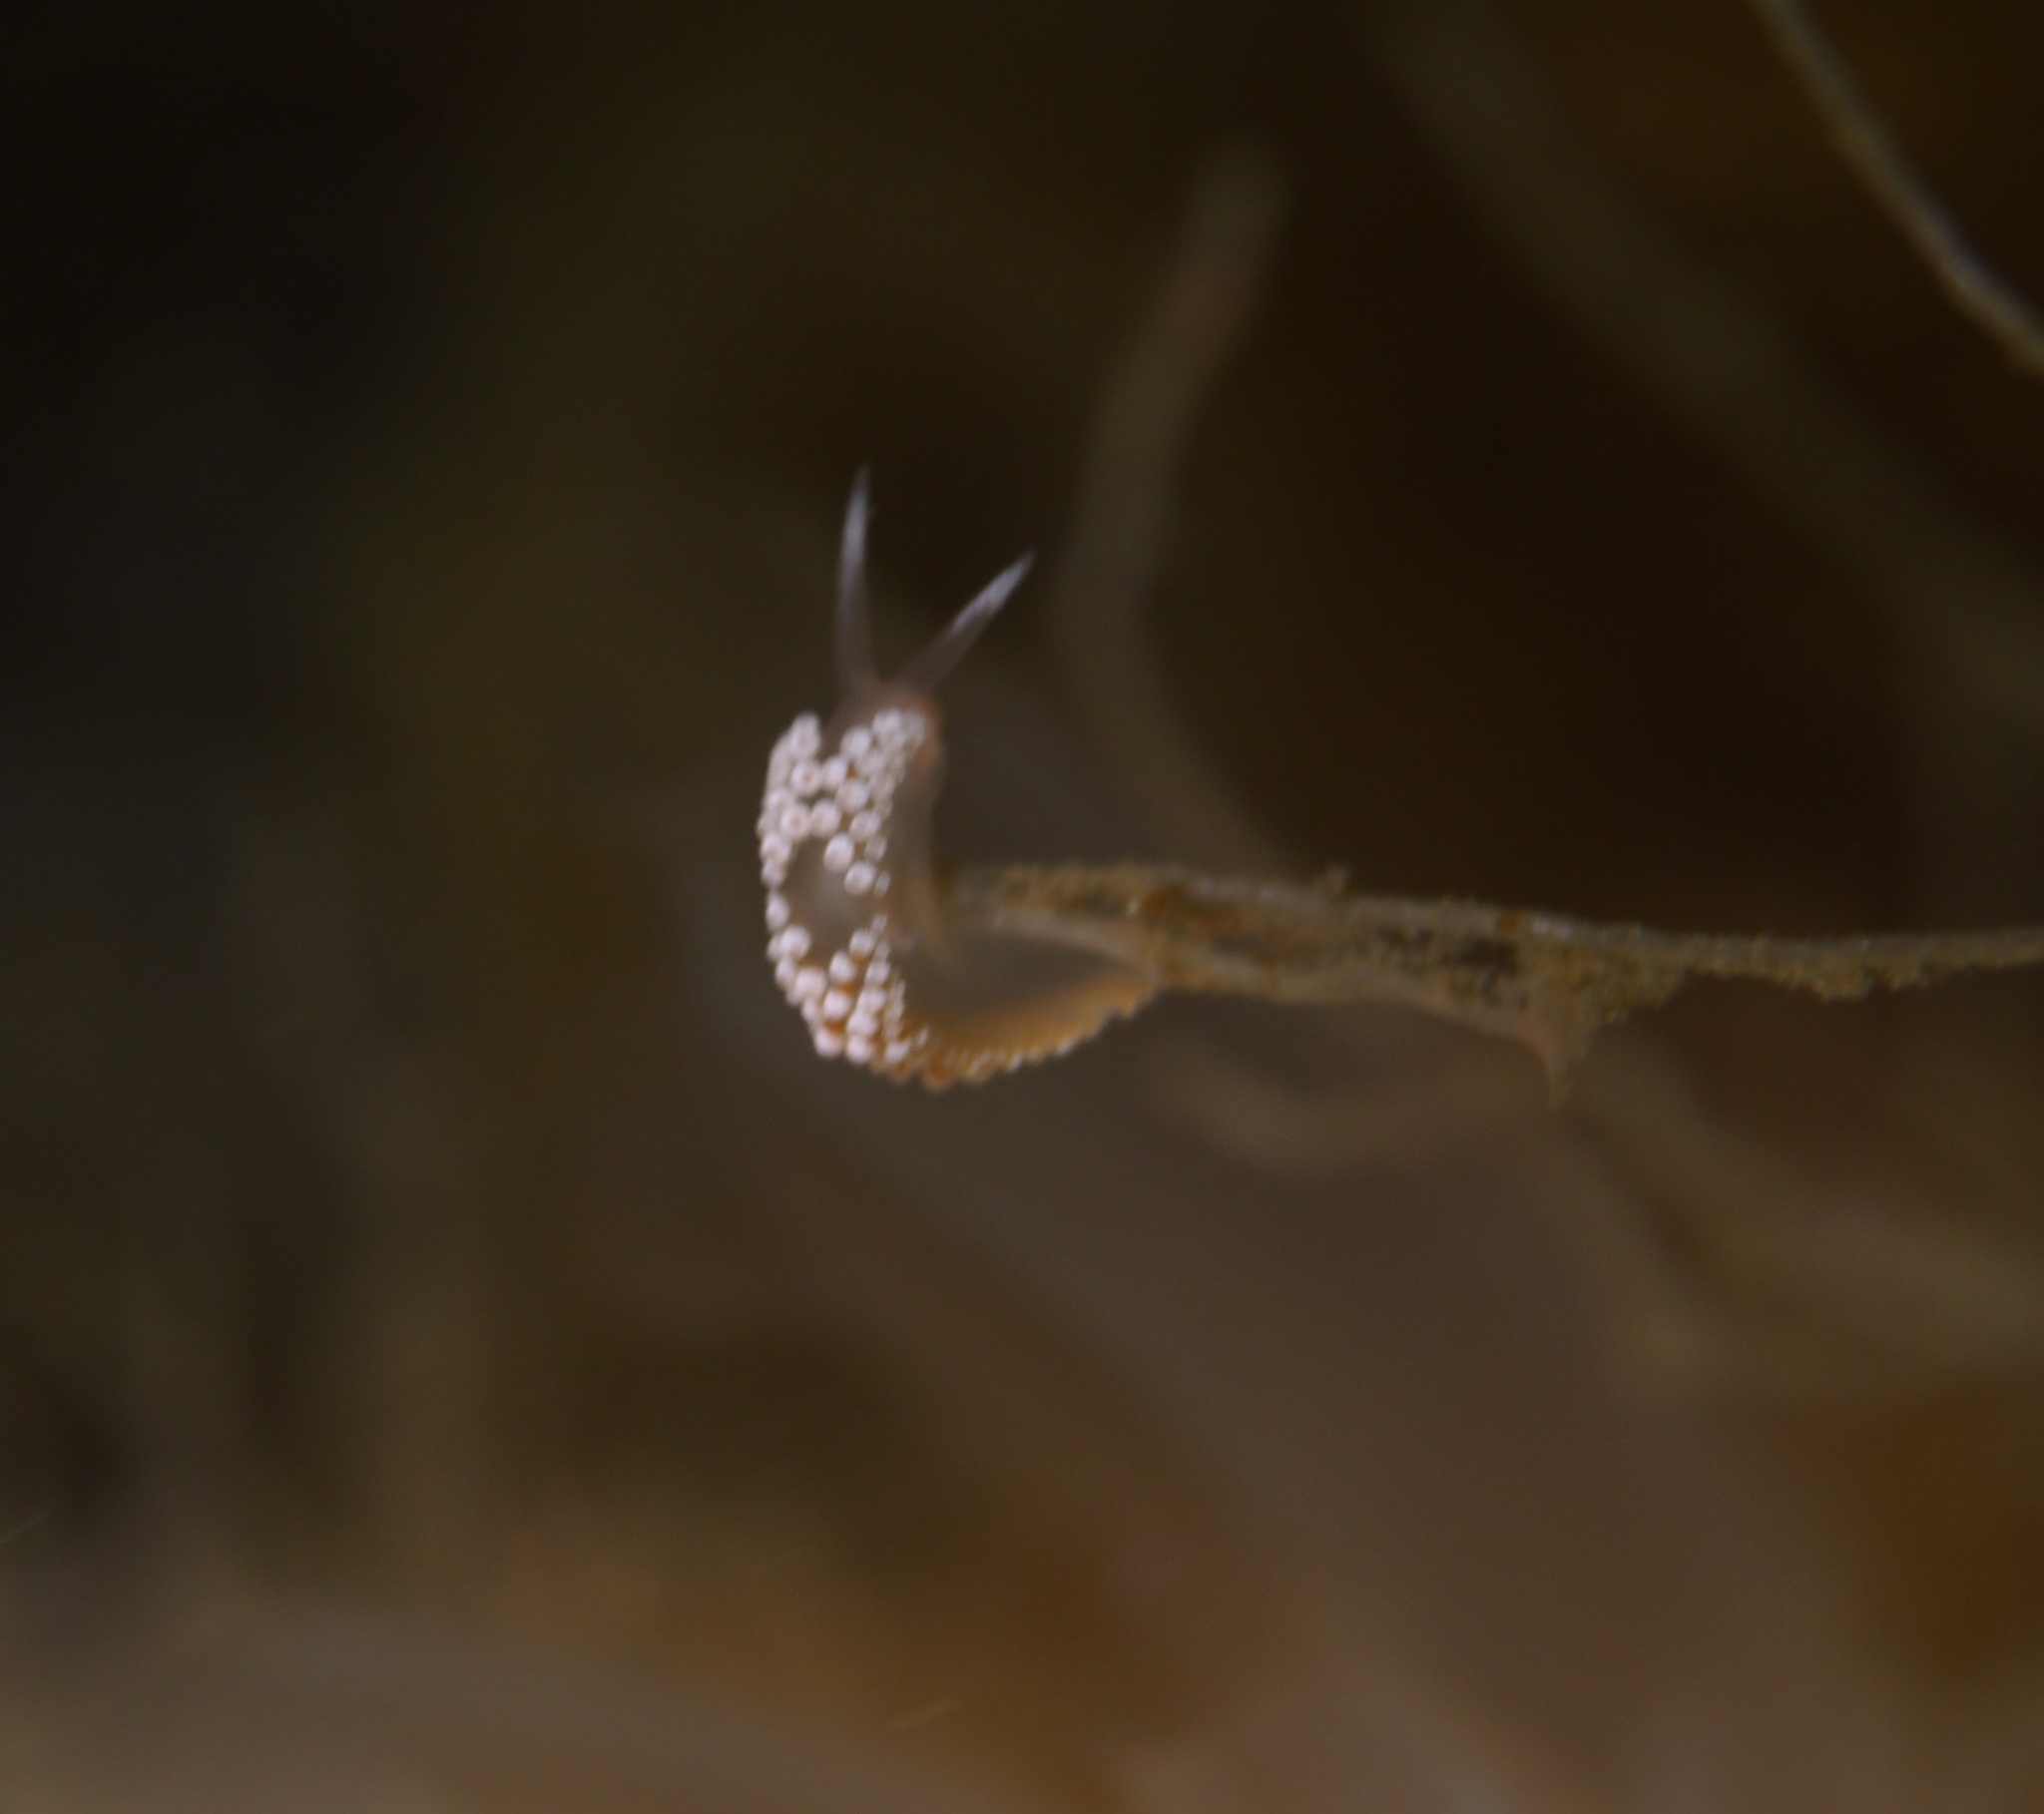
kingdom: Animalia
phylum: Mollusca
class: Gastropoda
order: Nudibranchia
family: Coryphellidae
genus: Coryphella
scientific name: Coryphella verrucosa
